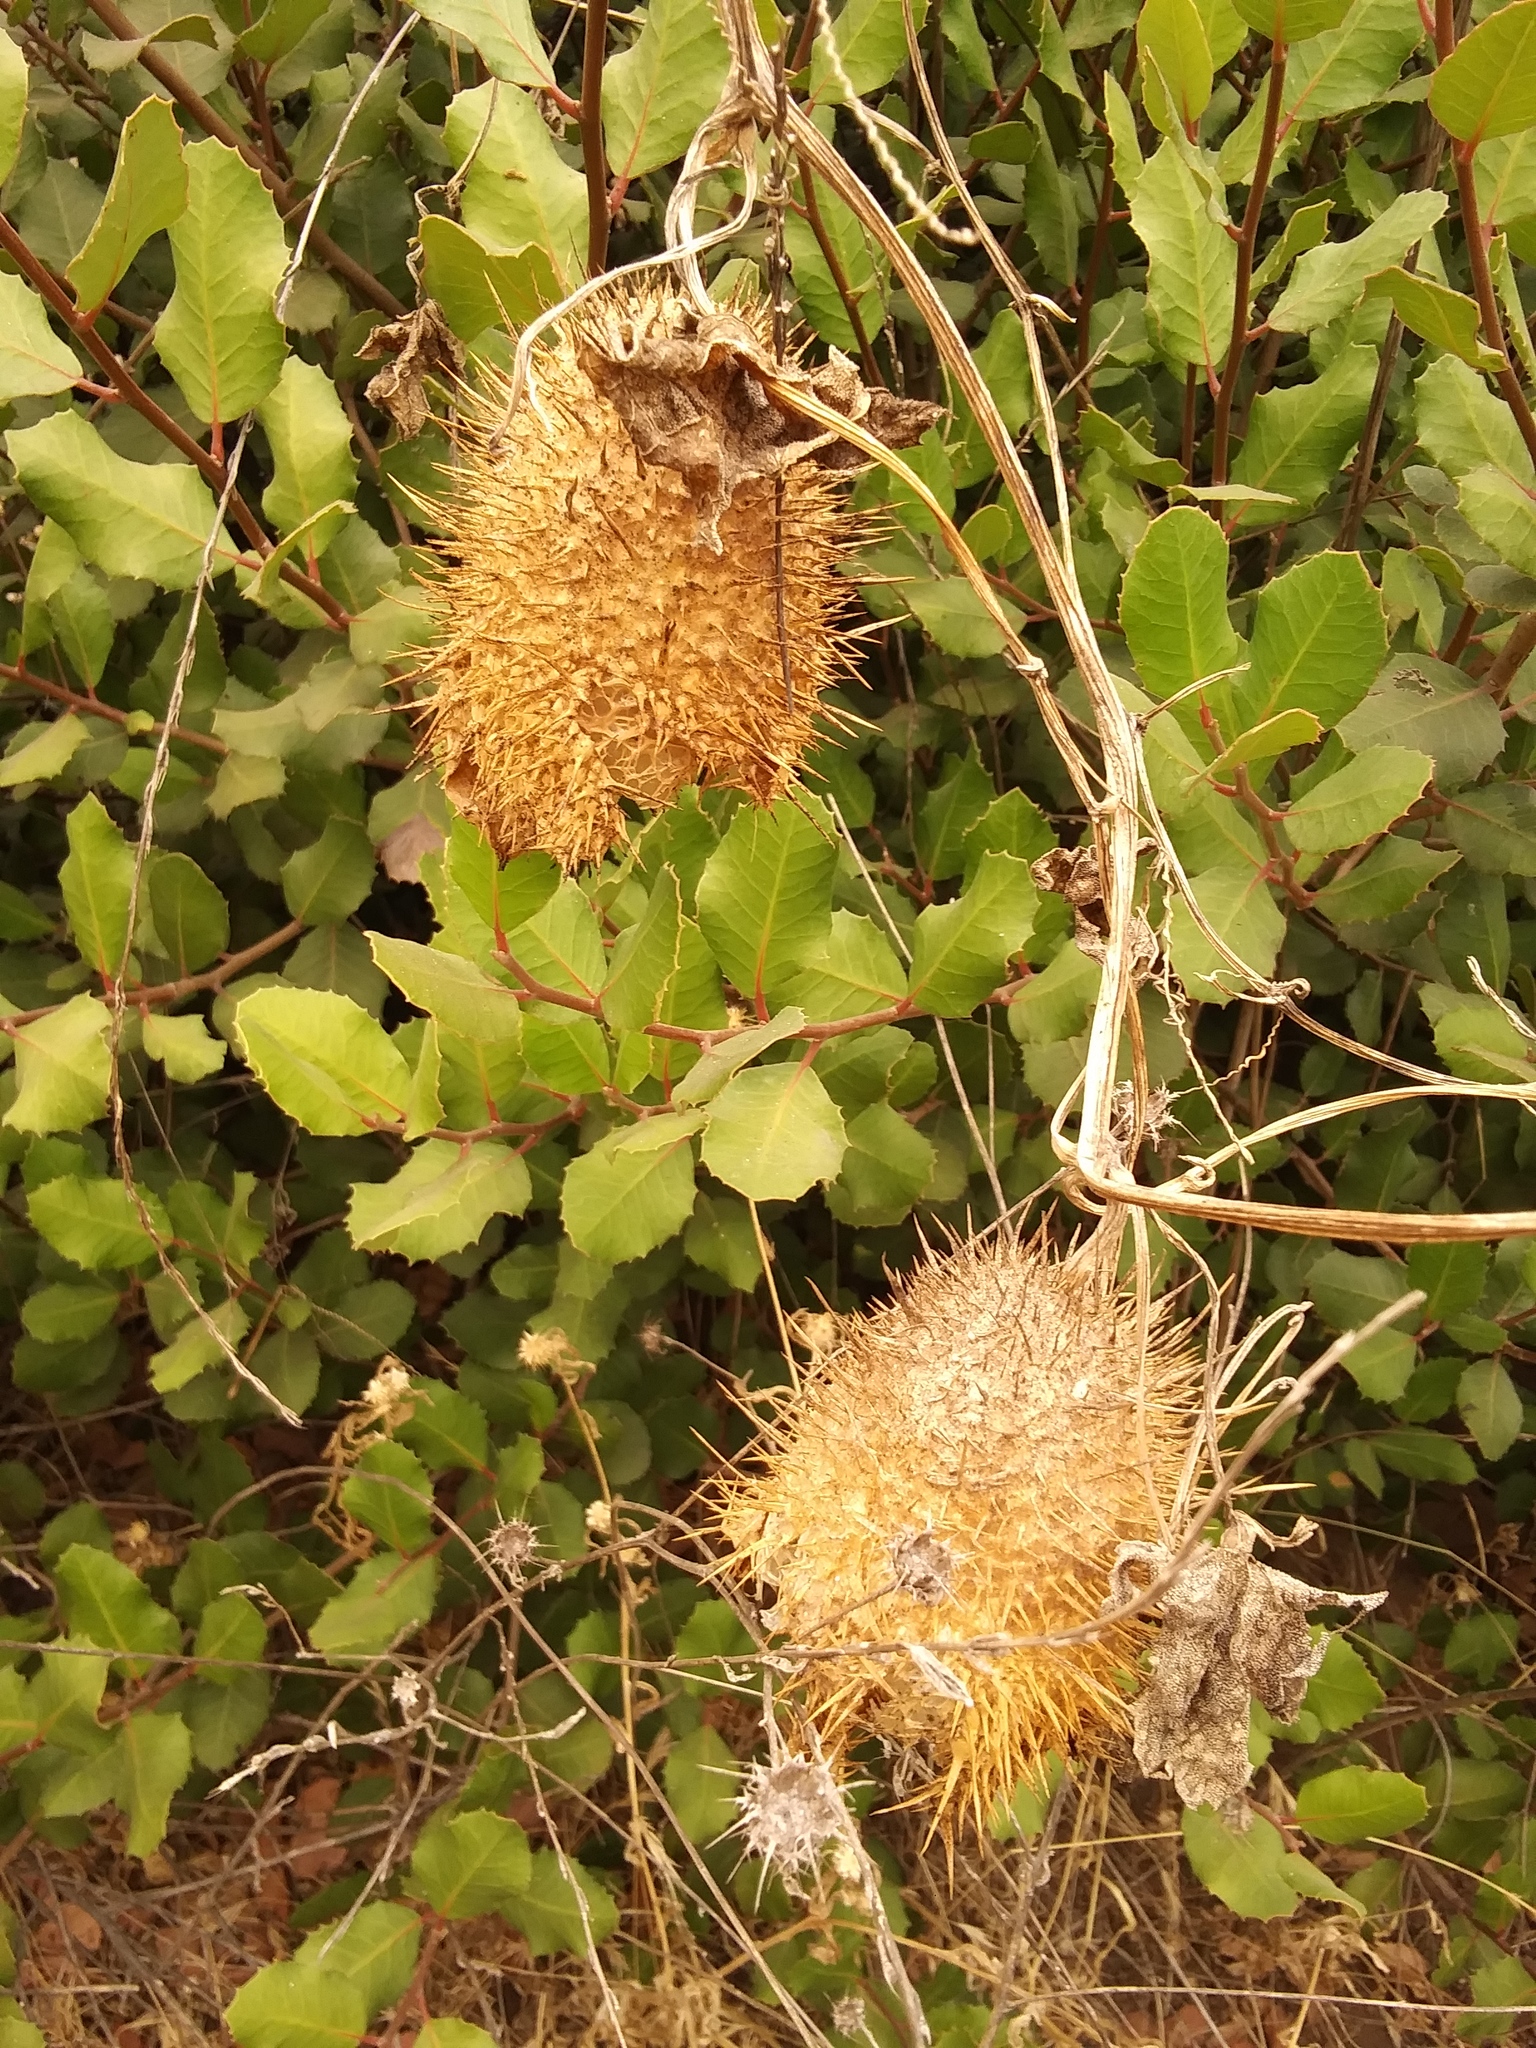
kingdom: Plantae
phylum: Tracheophyta
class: Magnoliopsida
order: Cucurbitales
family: Cucurbitaceae
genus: Marah
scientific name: Marah macrocarpa
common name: Cucamonga manroot
